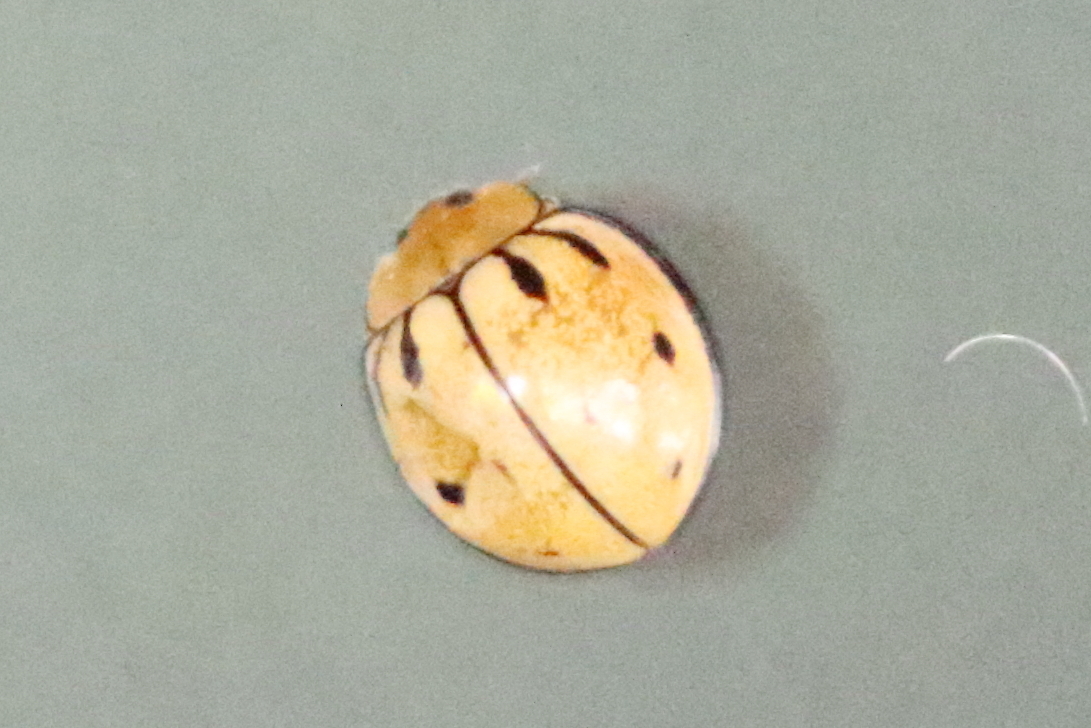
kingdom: Animalia
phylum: Arthropoda
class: Insecta
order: Coleoptera
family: Coccinellidae
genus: Microcaria
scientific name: Microcaria
